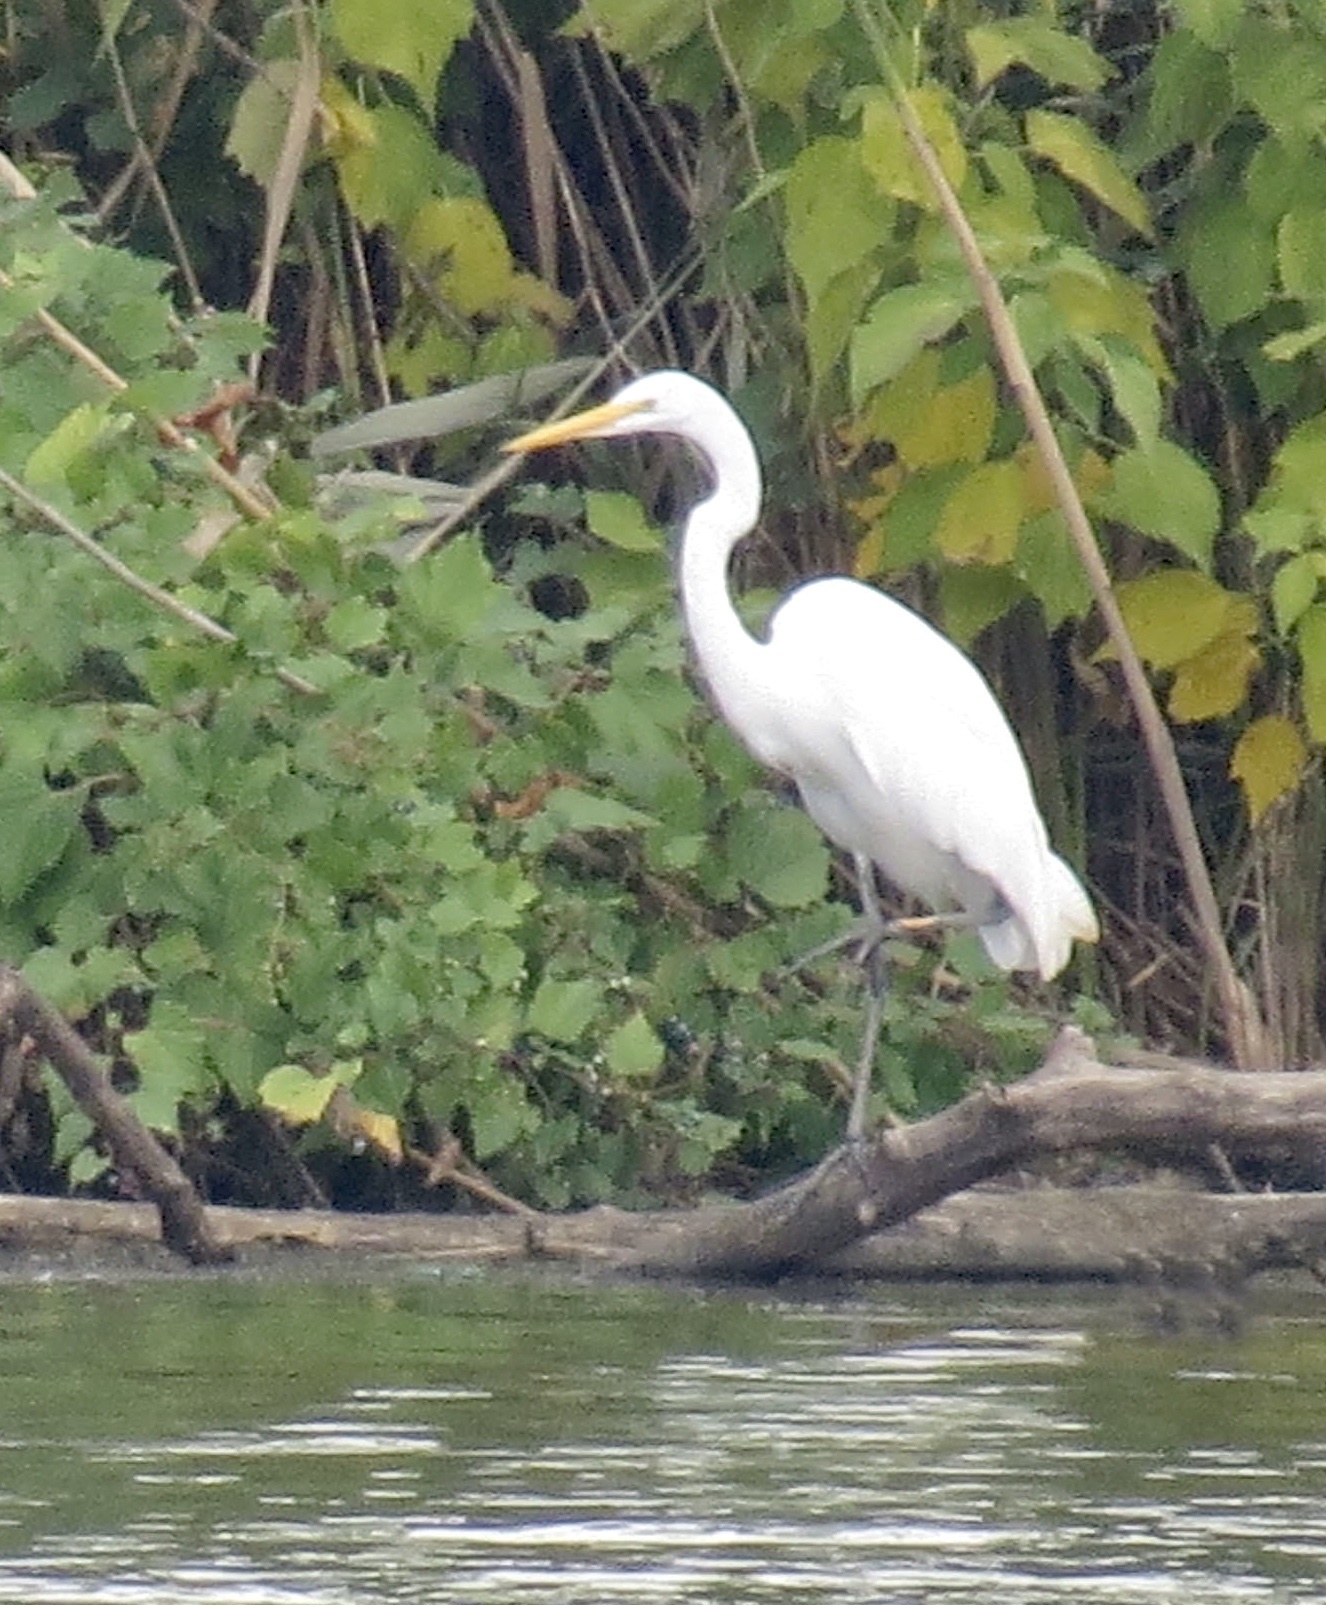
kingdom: Animalia
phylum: Chordata
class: Aves
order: Pelecaniformes
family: Ardeidae
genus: Ardea
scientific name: Ardea alba
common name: Great egret
